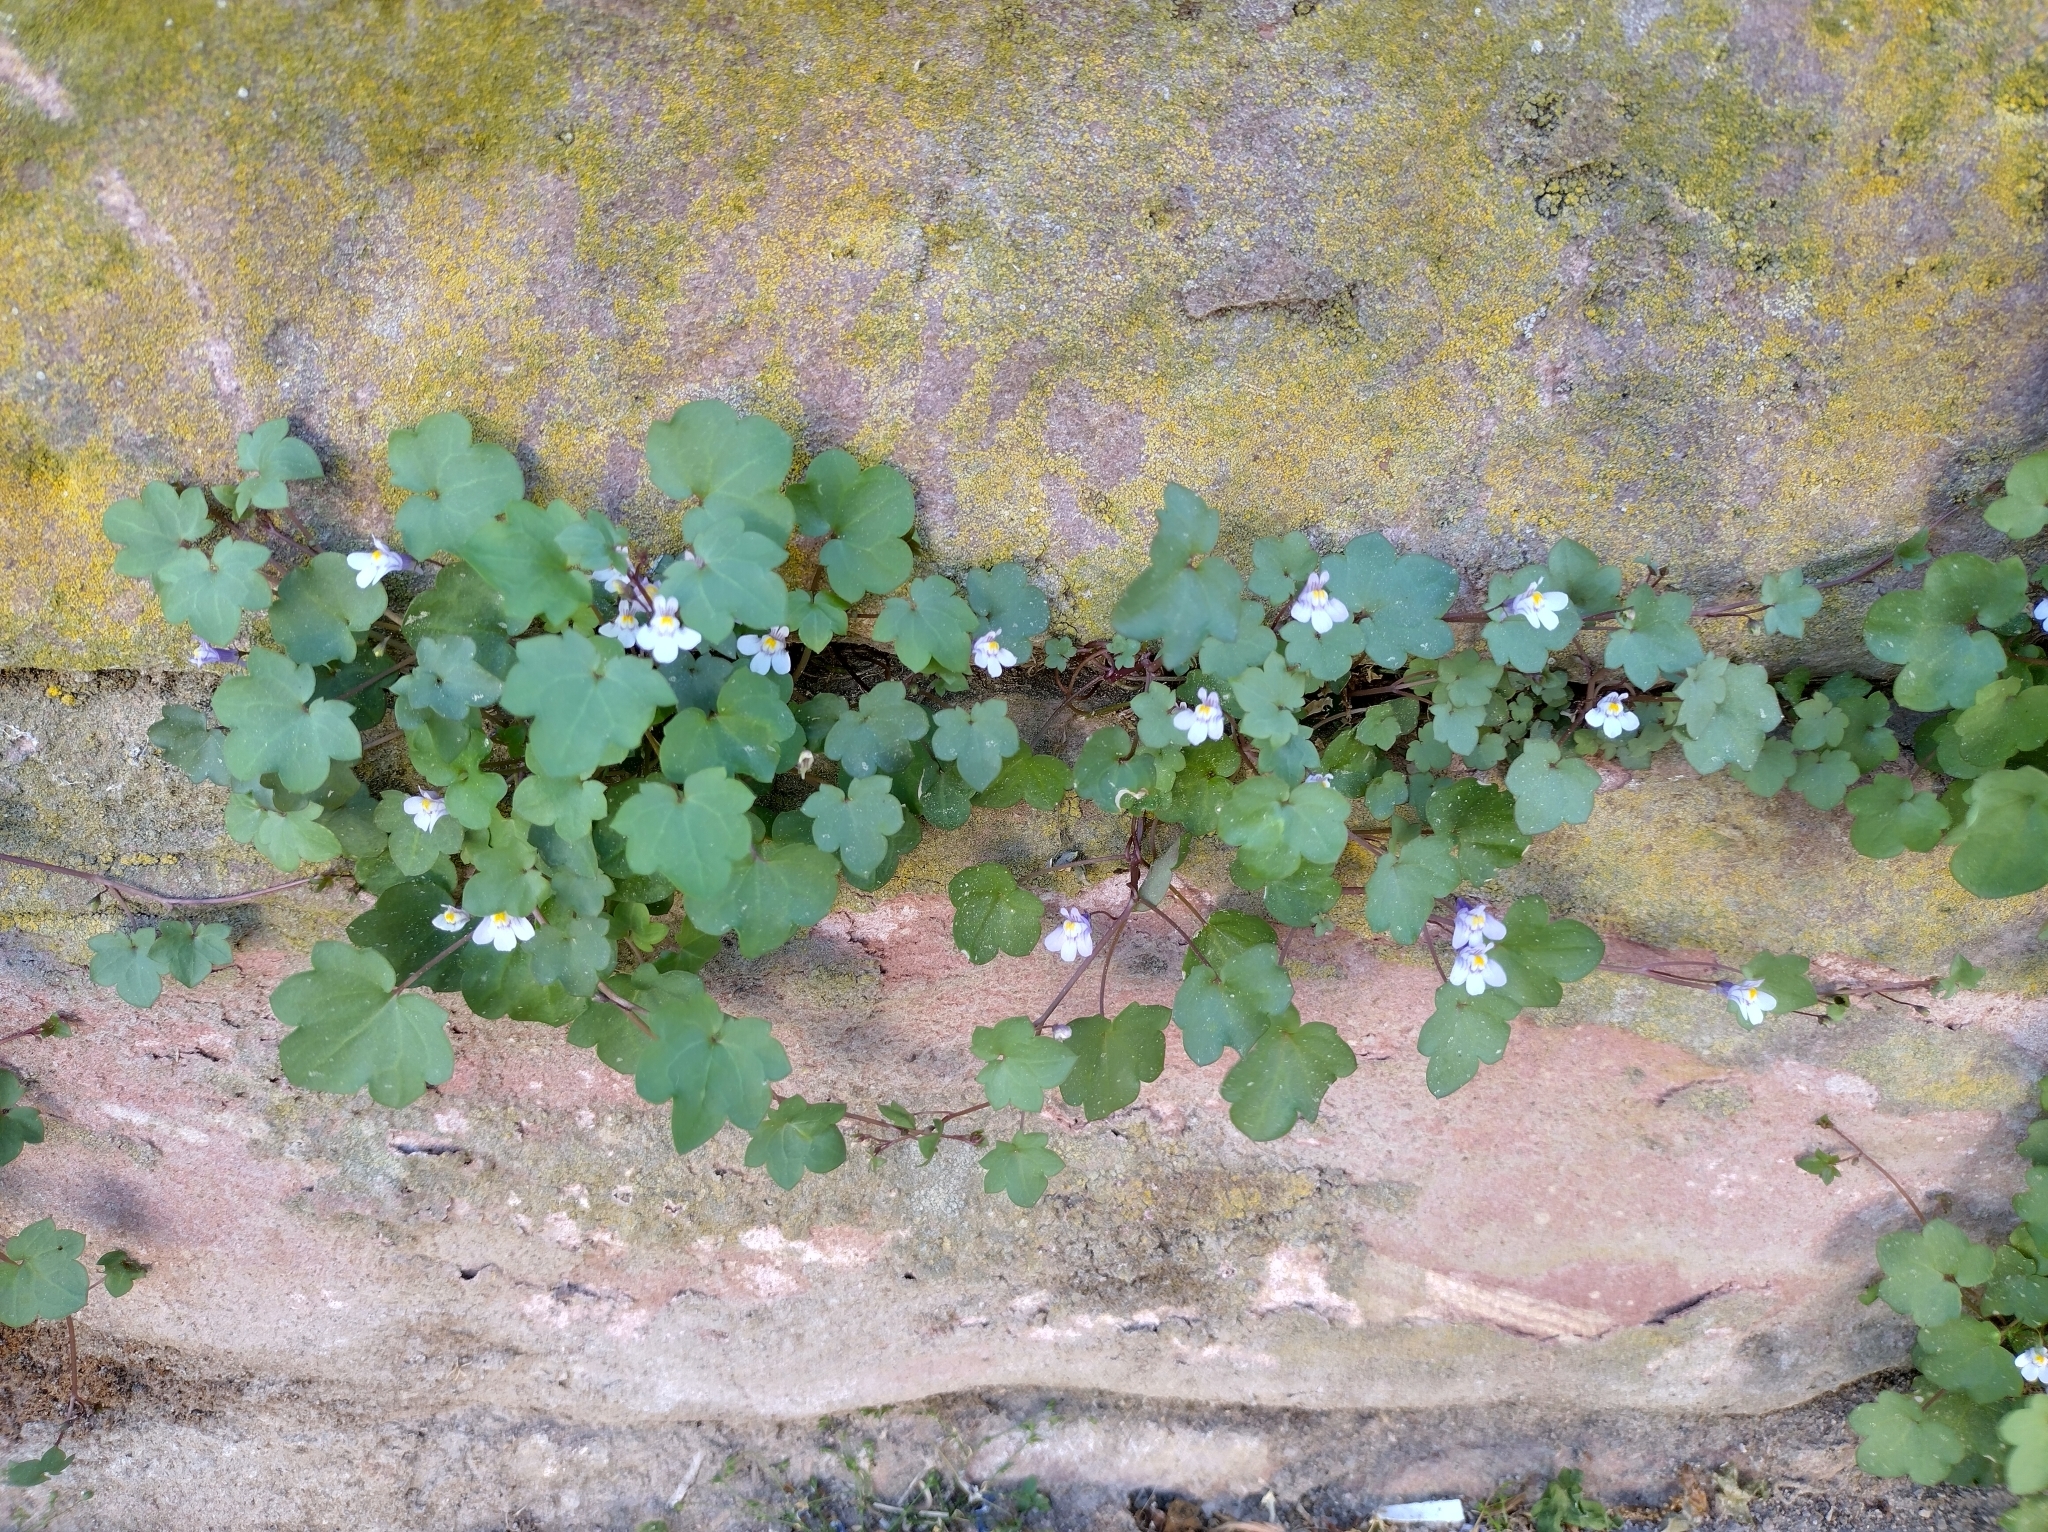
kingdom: Plantae
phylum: Tracheophyta
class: Magnoliopsida
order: Lamiales
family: Plantaginaceae
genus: Cymbalaria
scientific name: Cymbalaria muralis
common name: Ivy-leaved toadflax
